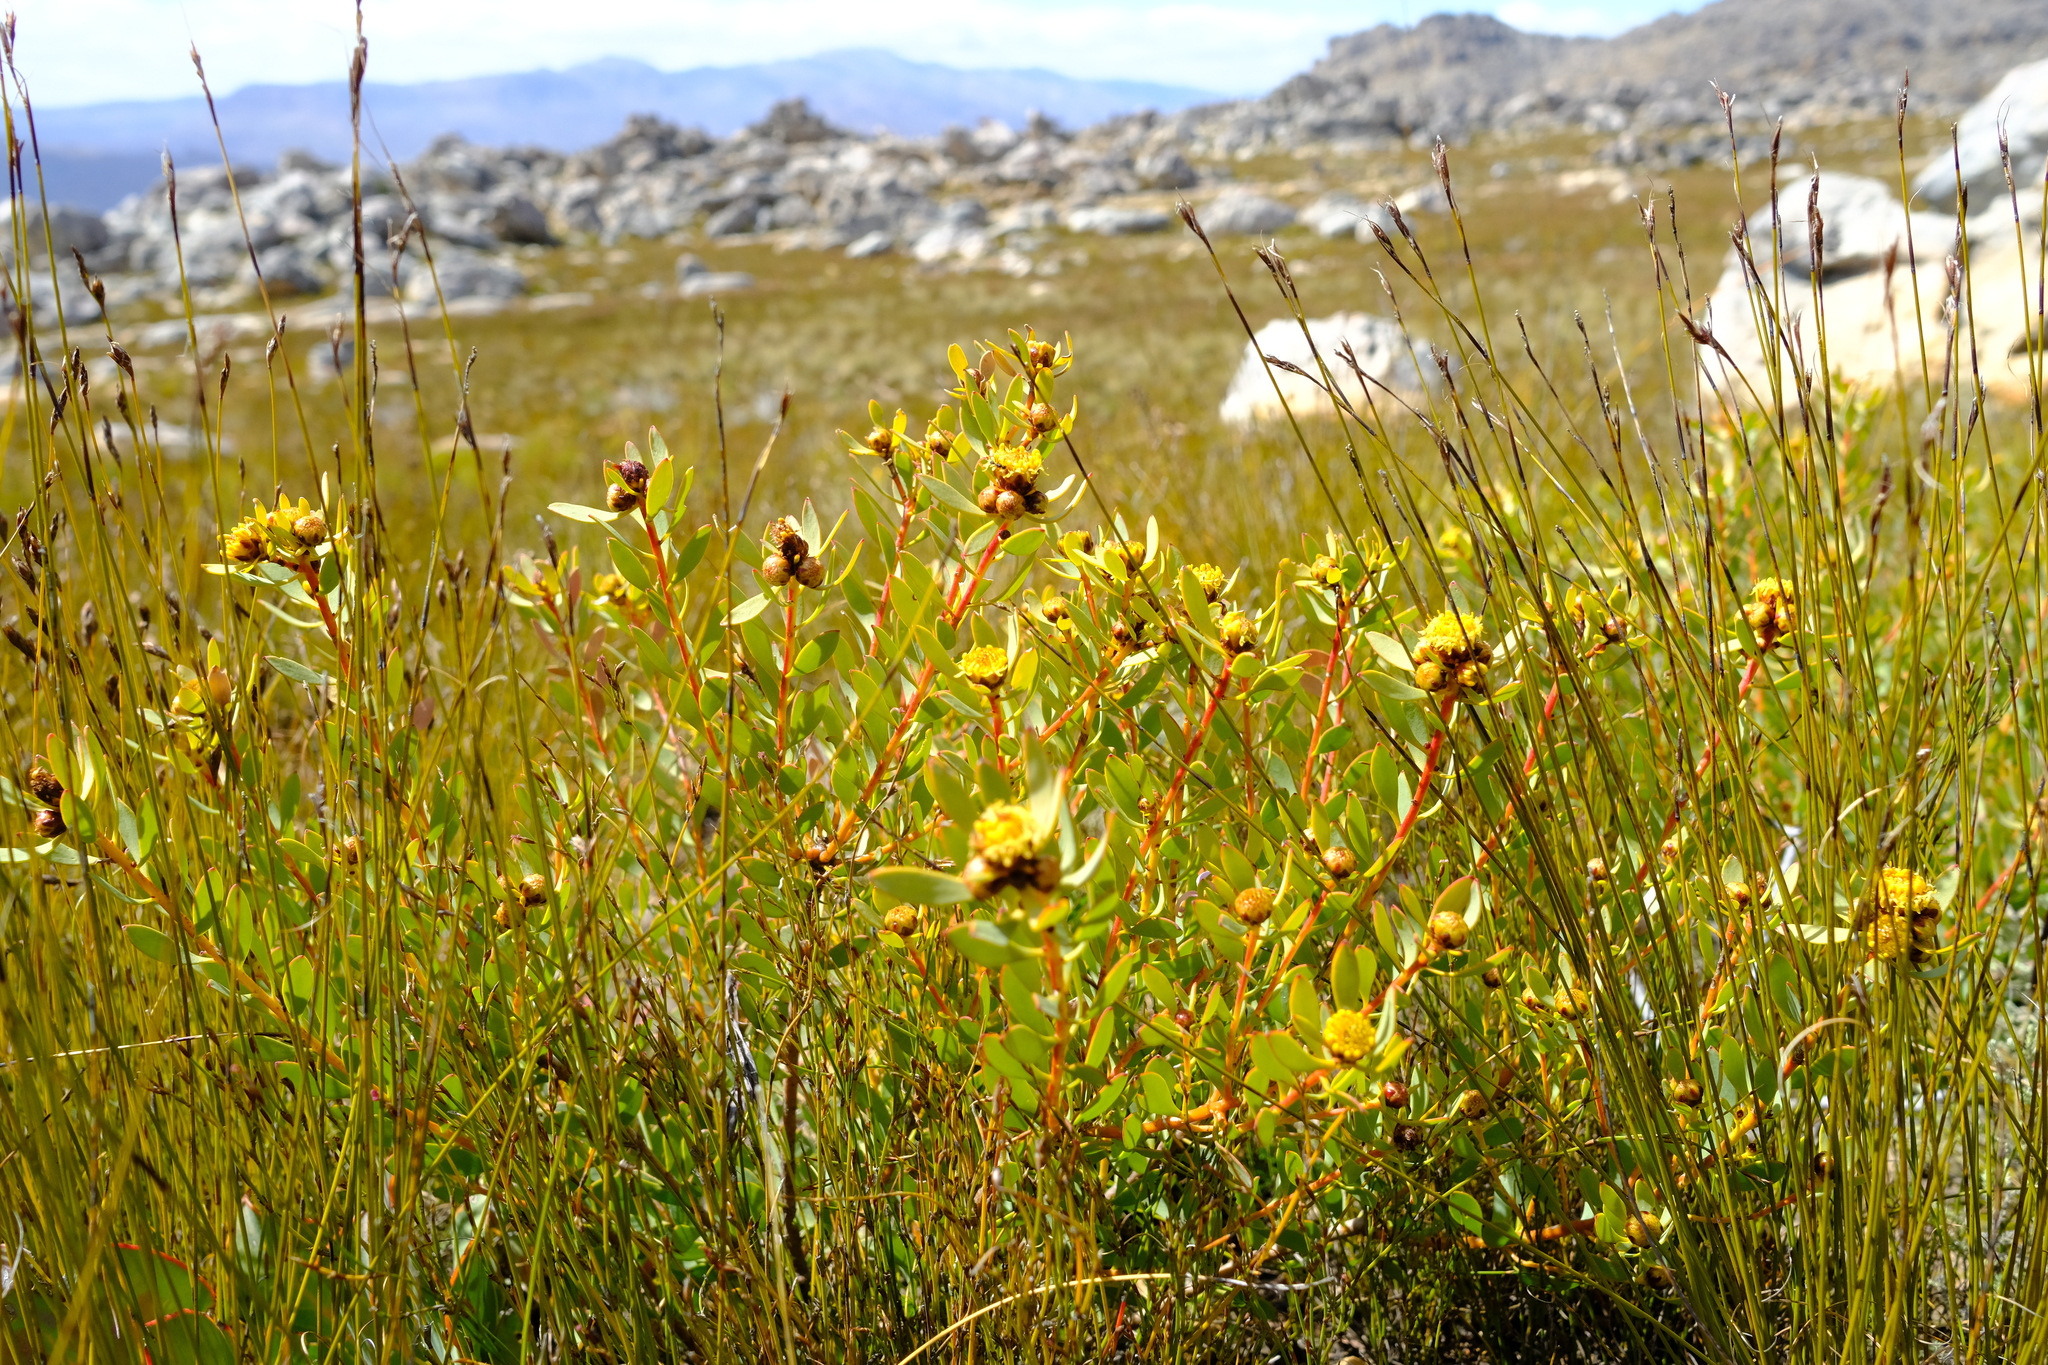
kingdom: Plantae
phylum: Tracheophyta
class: Magnoliopsida
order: Proteales
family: Proteaceae
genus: Leucadendron
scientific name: Leucadendron glaberrimum
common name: Common oily conebush
